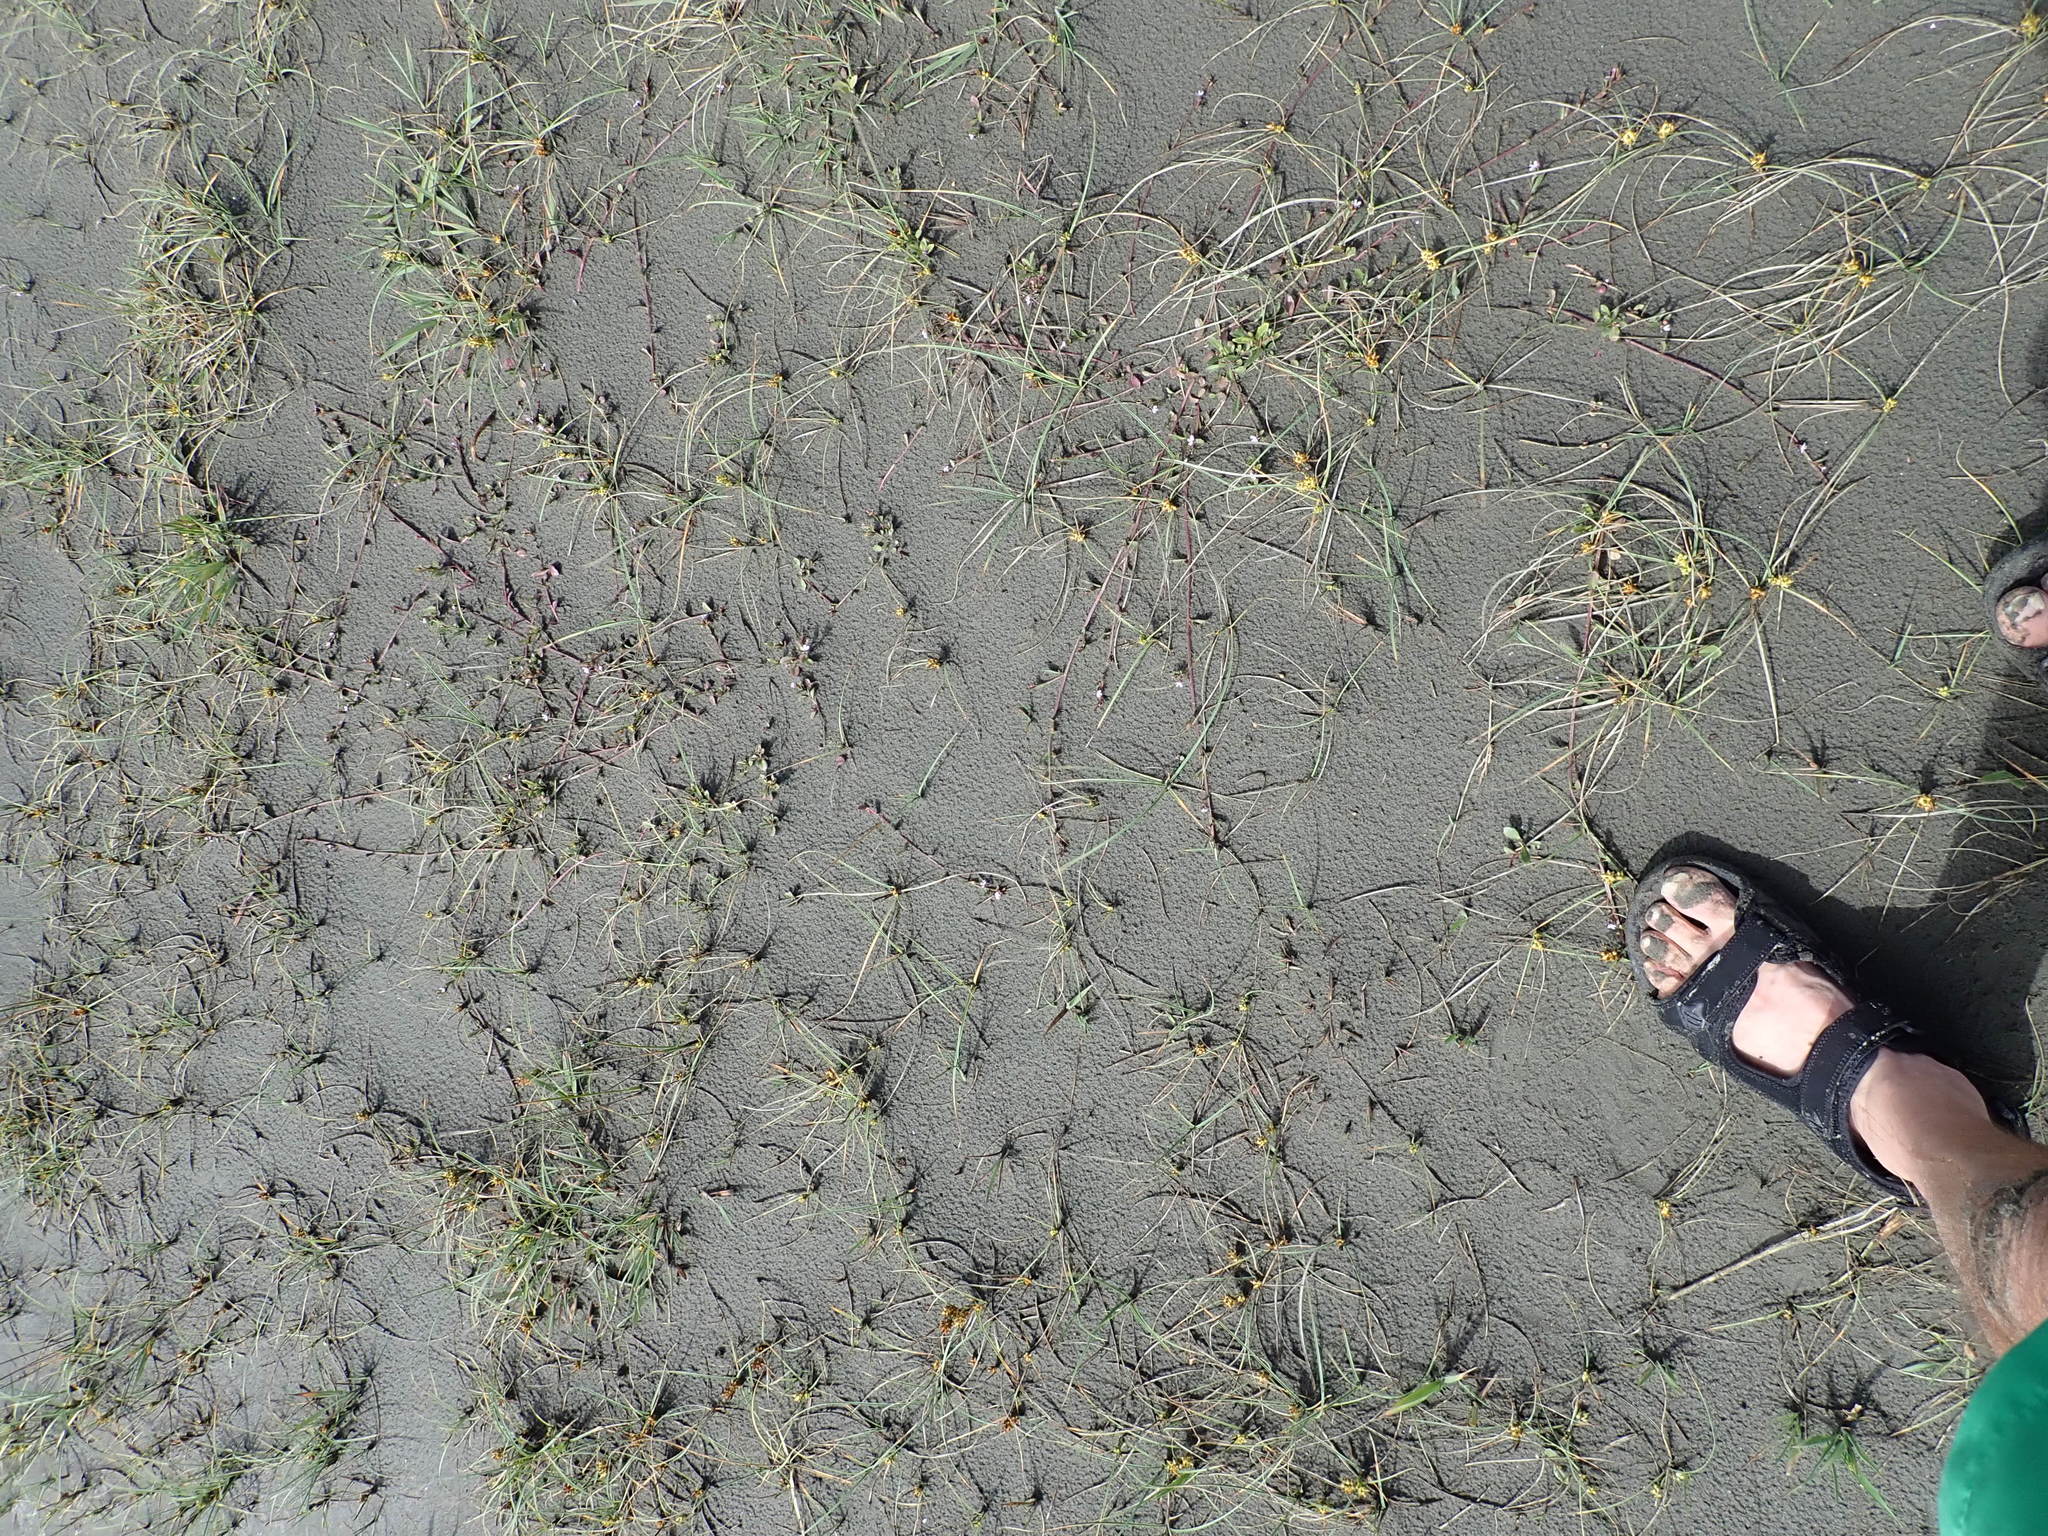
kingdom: Plantae
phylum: Tracheophyta
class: Magnoliopsida
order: Asterales
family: Campanulaceae
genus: Lobelia
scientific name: Lobelia anceps
